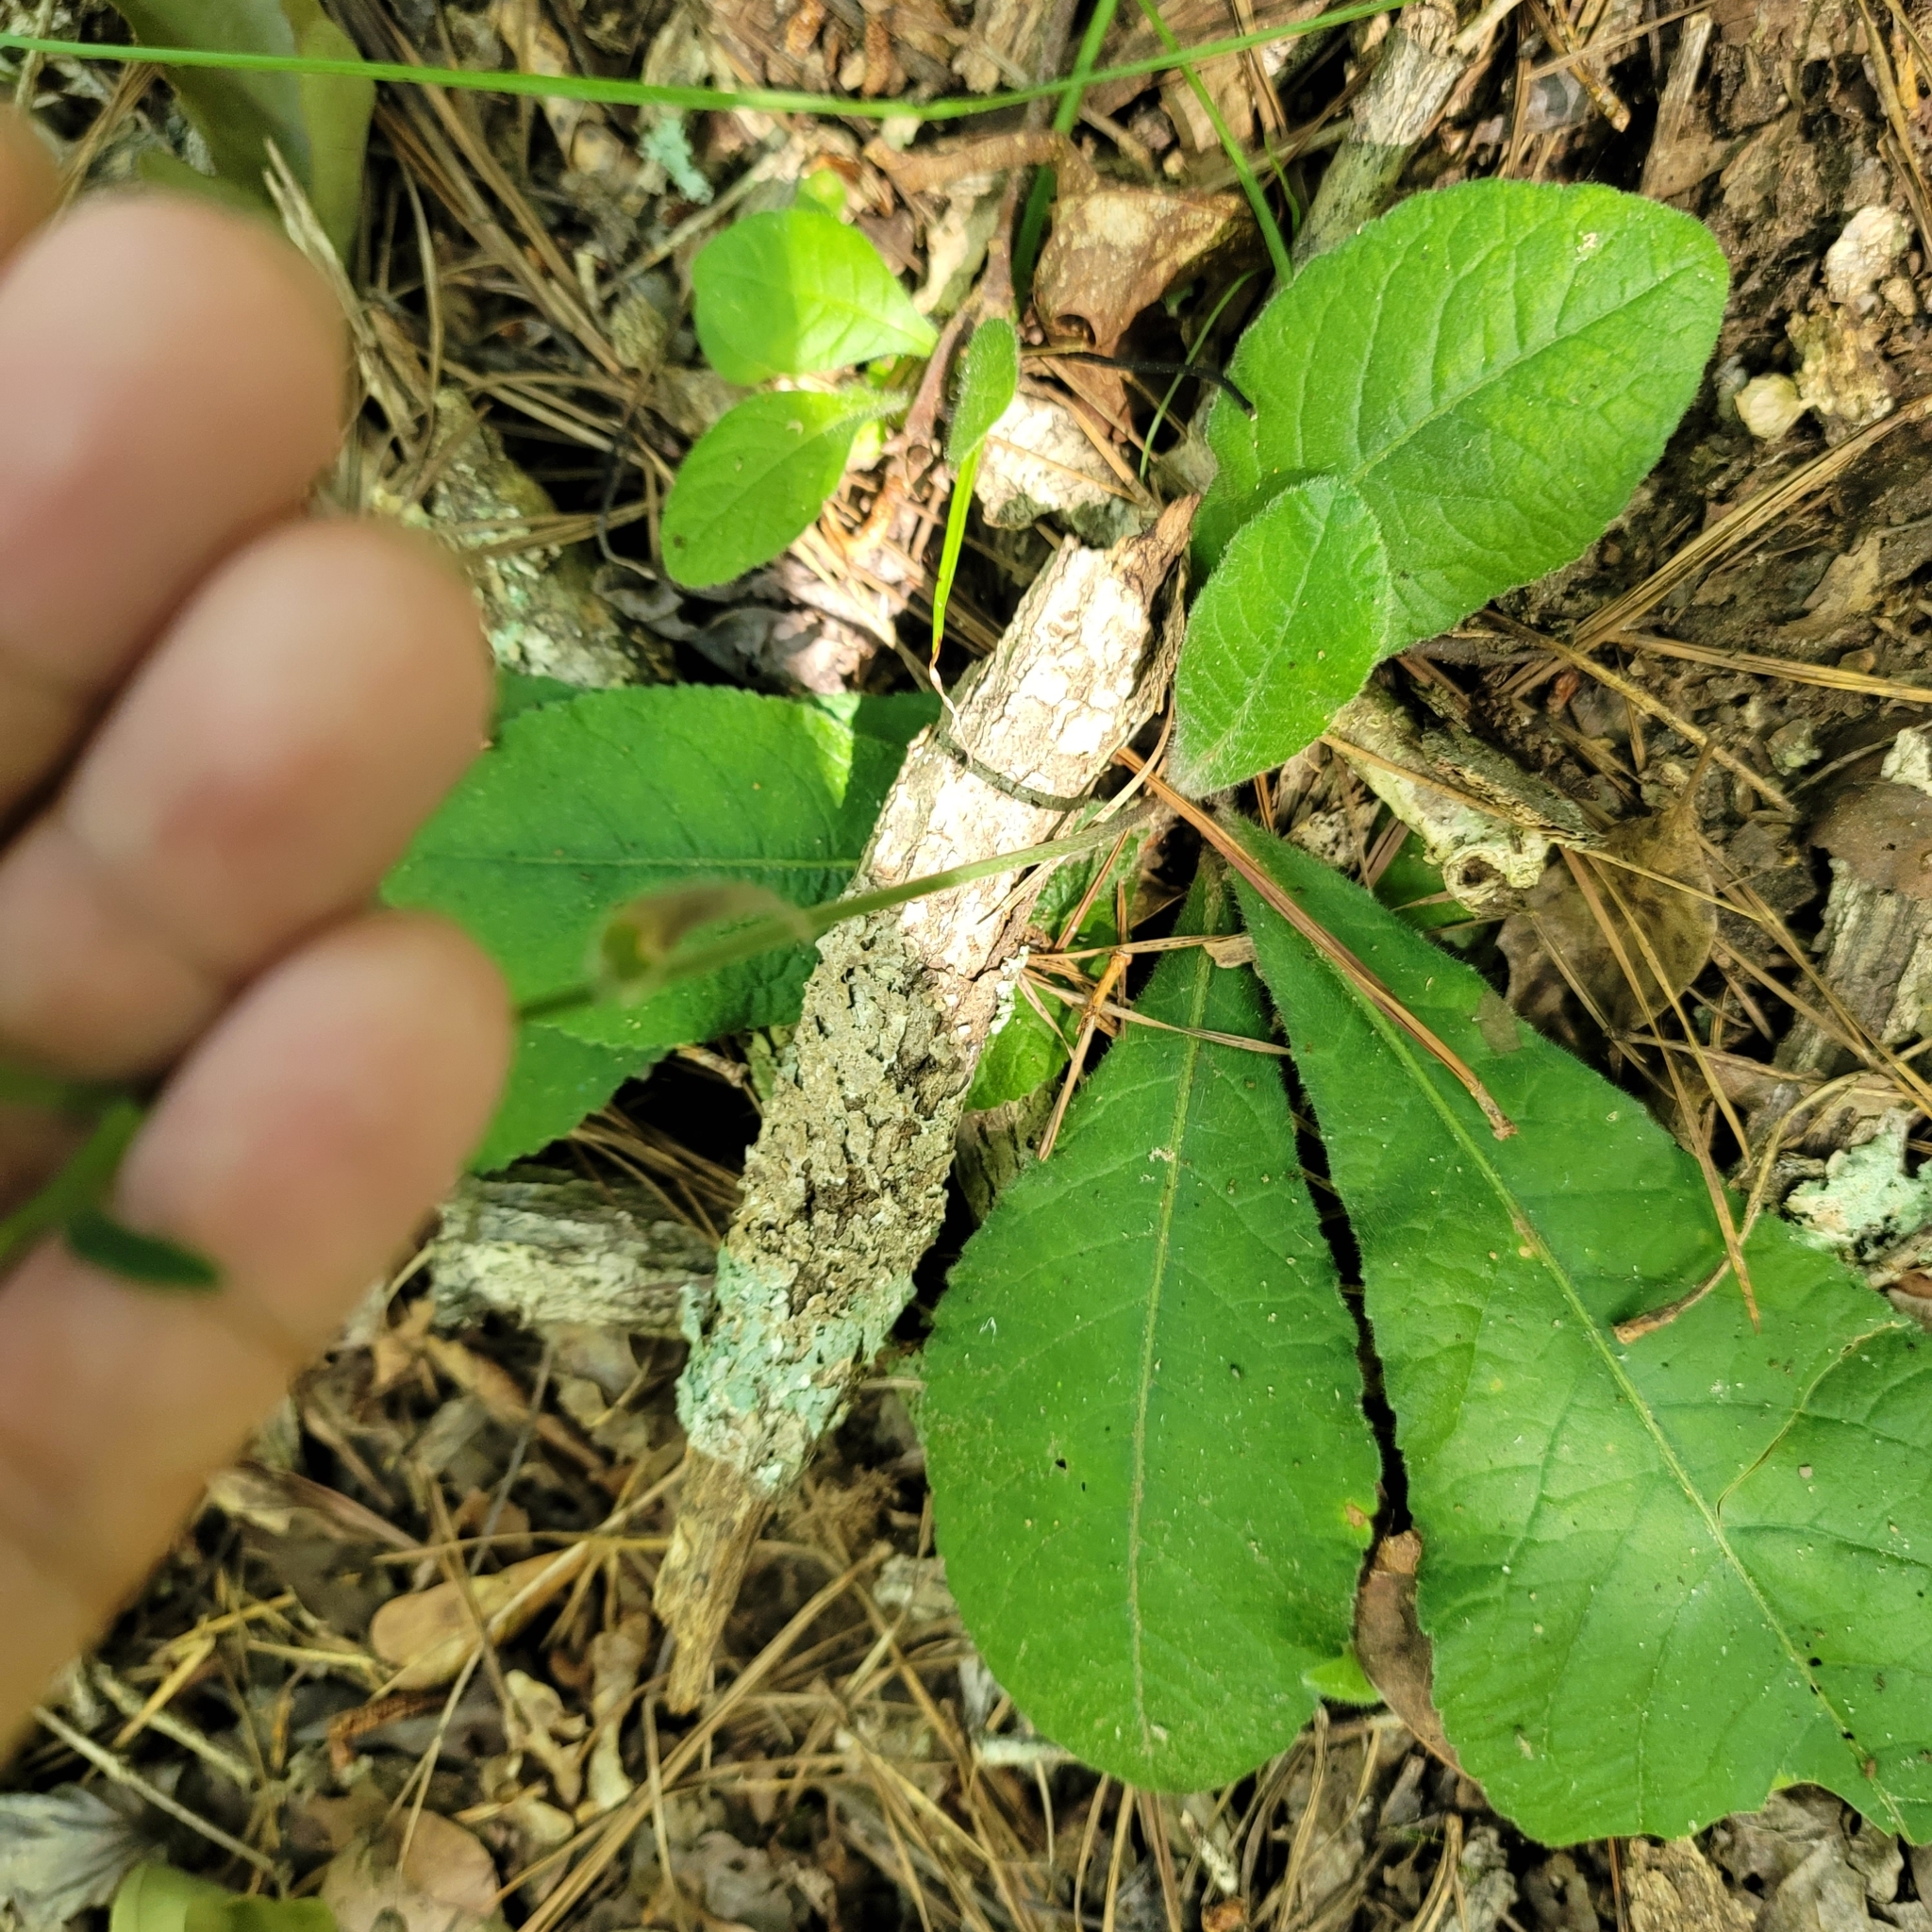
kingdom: Plantae
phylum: Tracheophyta
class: Magnoliopsida
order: Asterales
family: Asteraceae
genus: Elephantopus
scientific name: Elephantopus tomentosus
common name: Tobacco-weed
